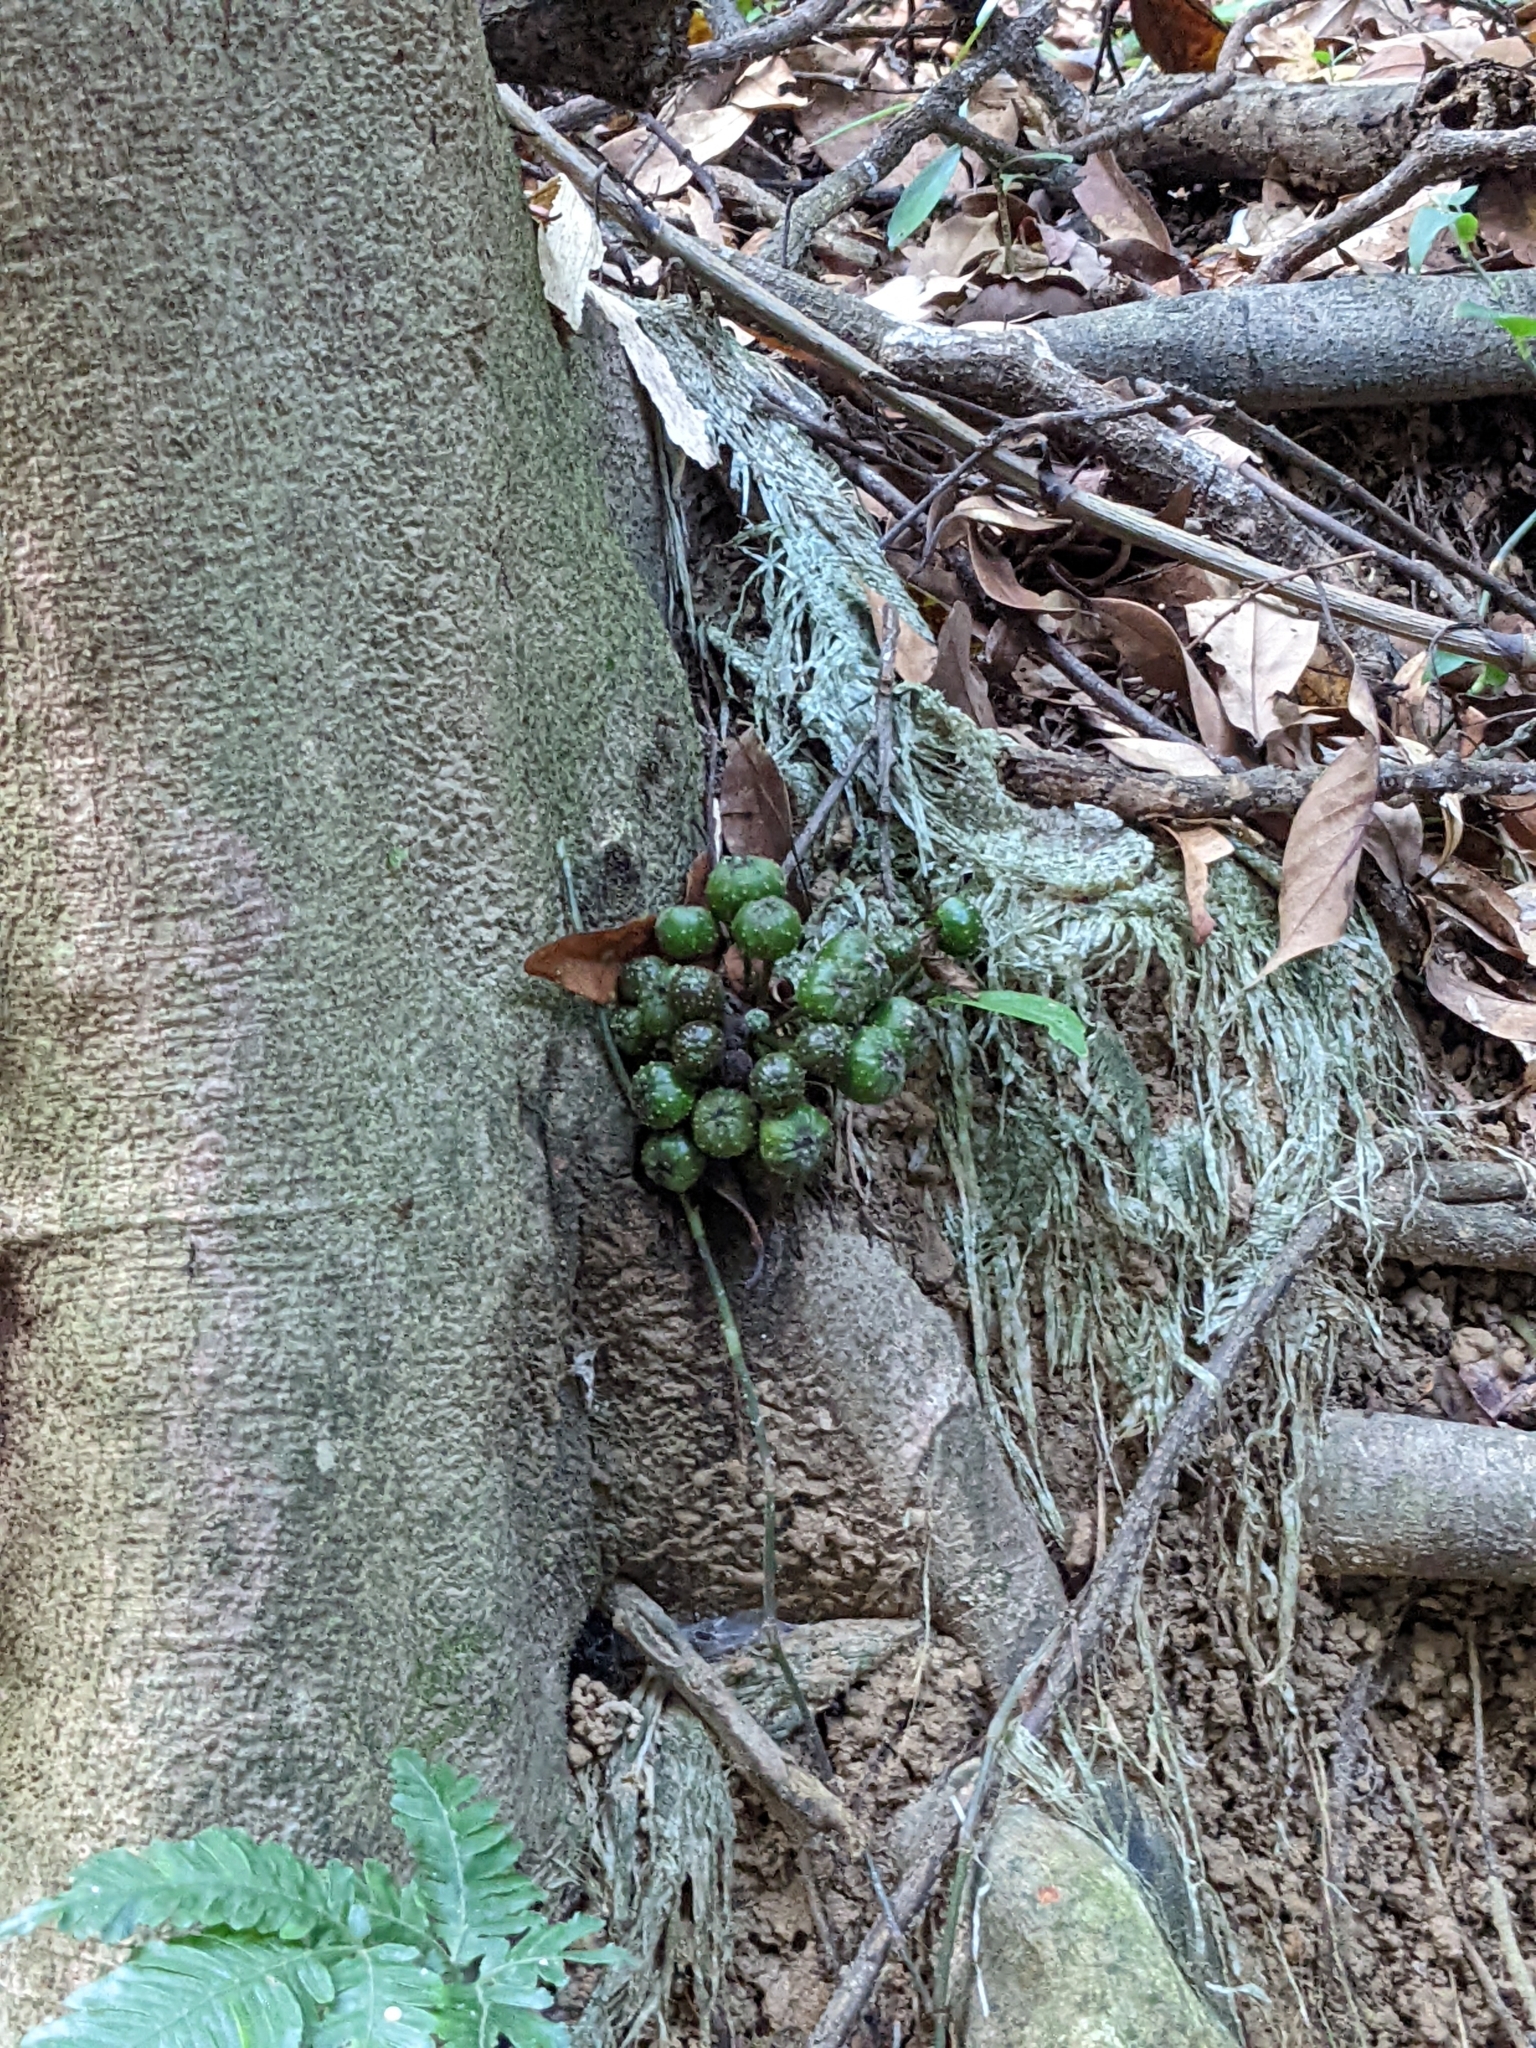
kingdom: Plantae
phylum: Tracheophyta
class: Magnoliopsida
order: Rosales
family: Moraceae
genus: Ficus
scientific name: Ficus benguetensis
